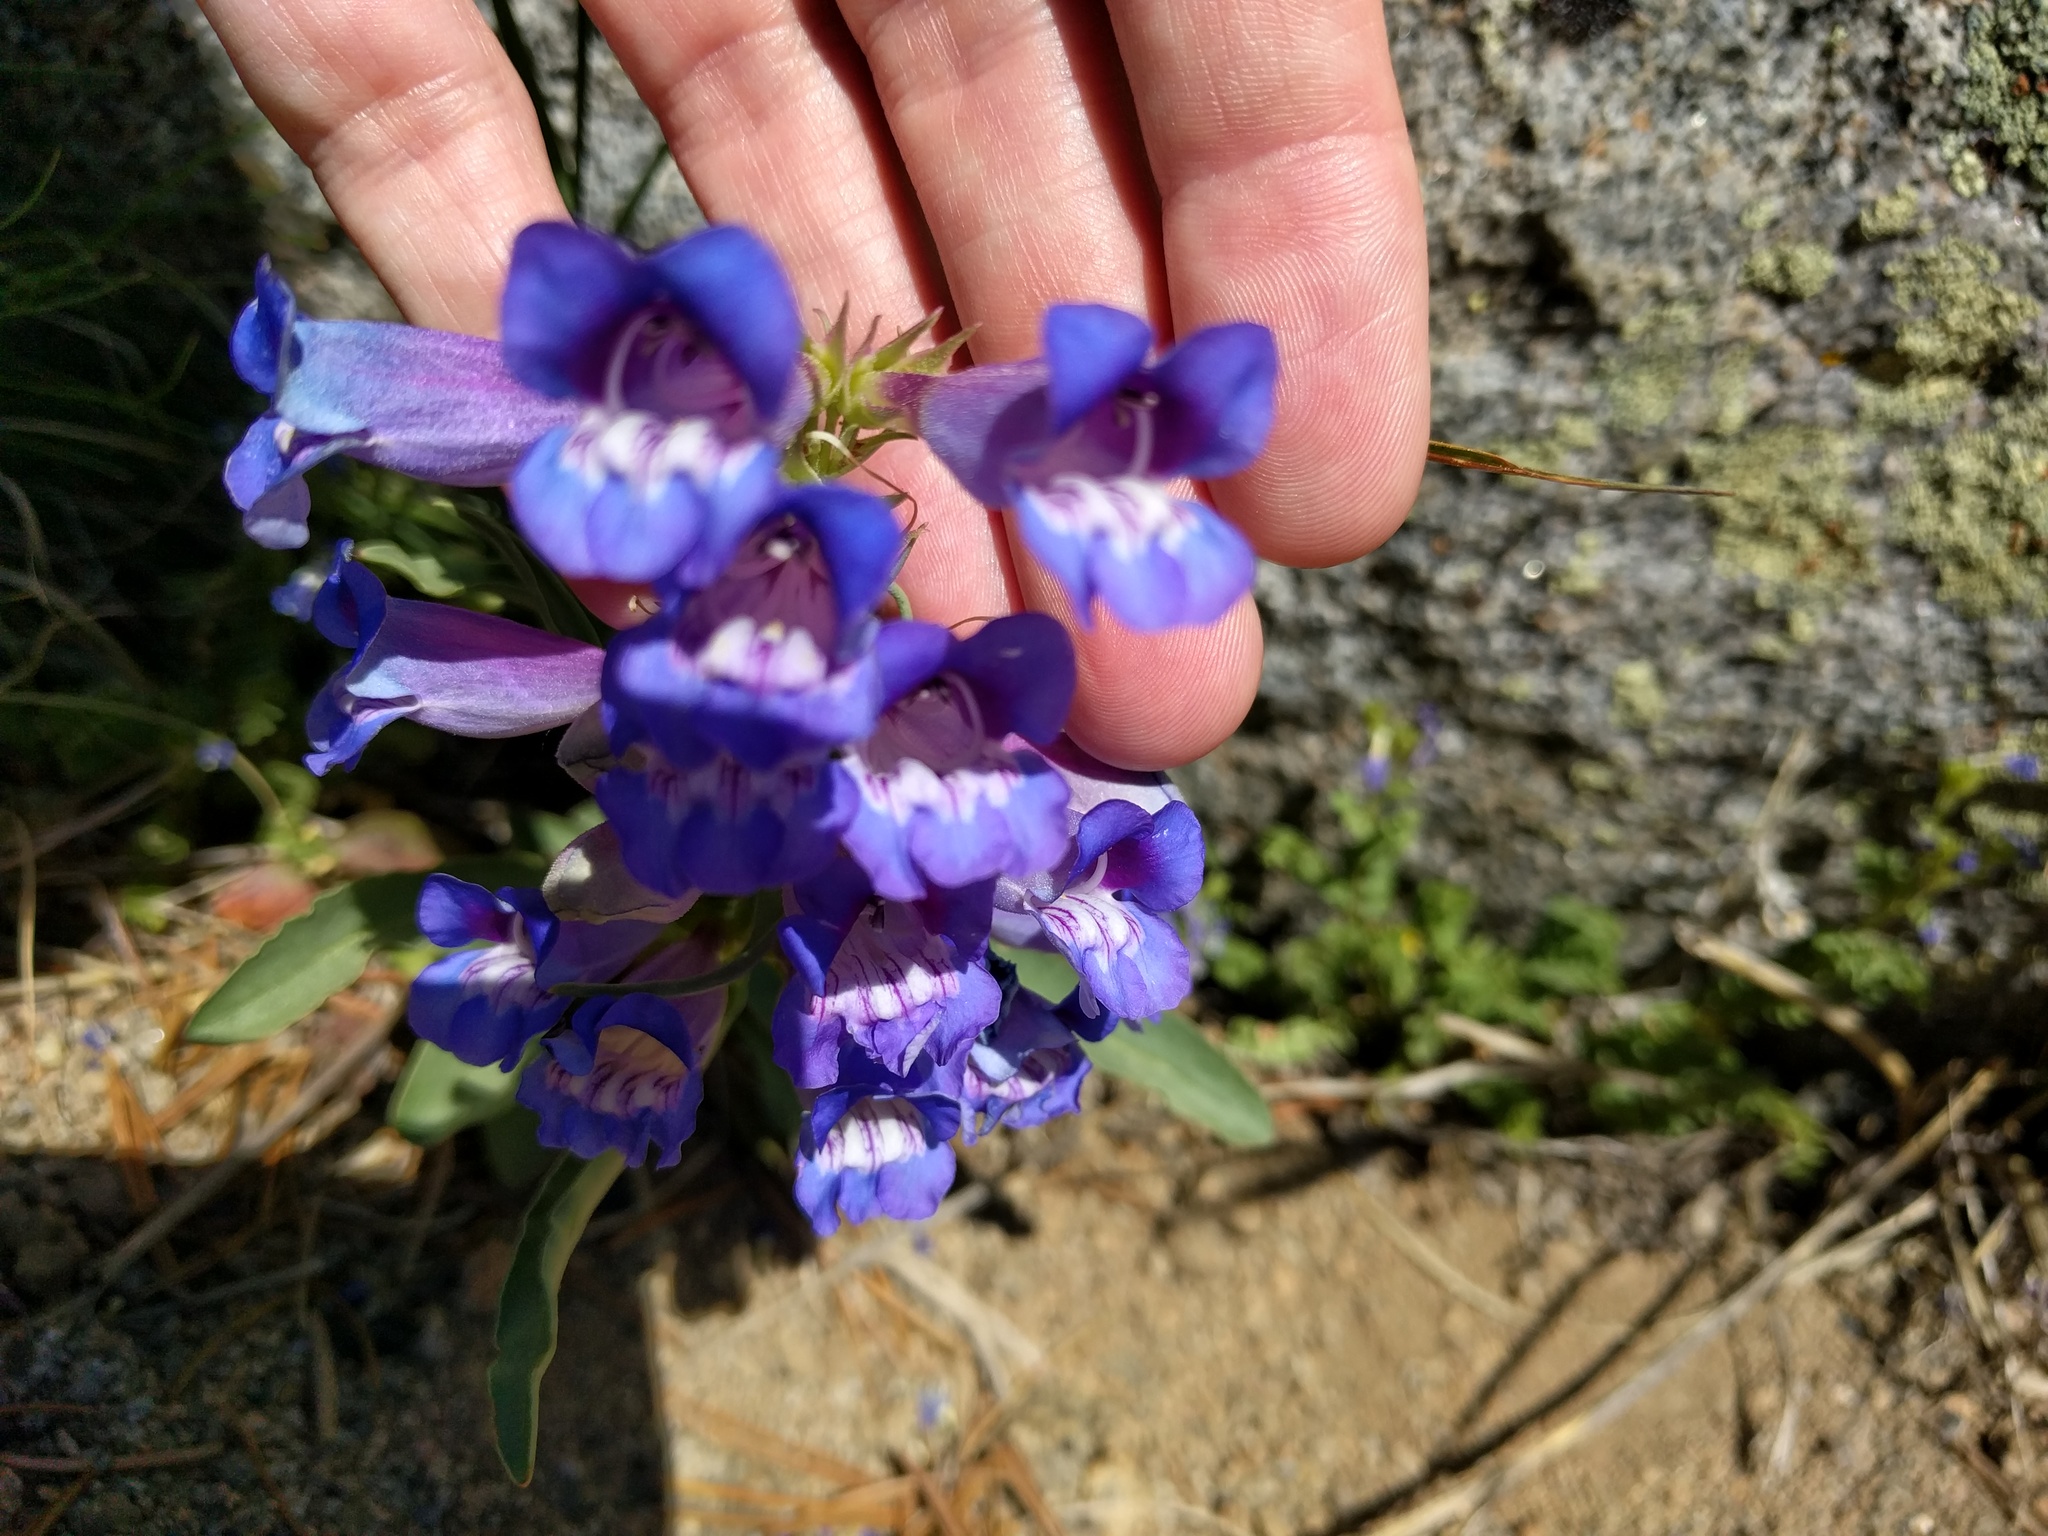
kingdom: Plantae
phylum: Tracheophyta
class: Magnoliopsida
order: Lamiales
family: Plantaginaceae
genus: Penstemon
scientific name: Penstemon speciosus
